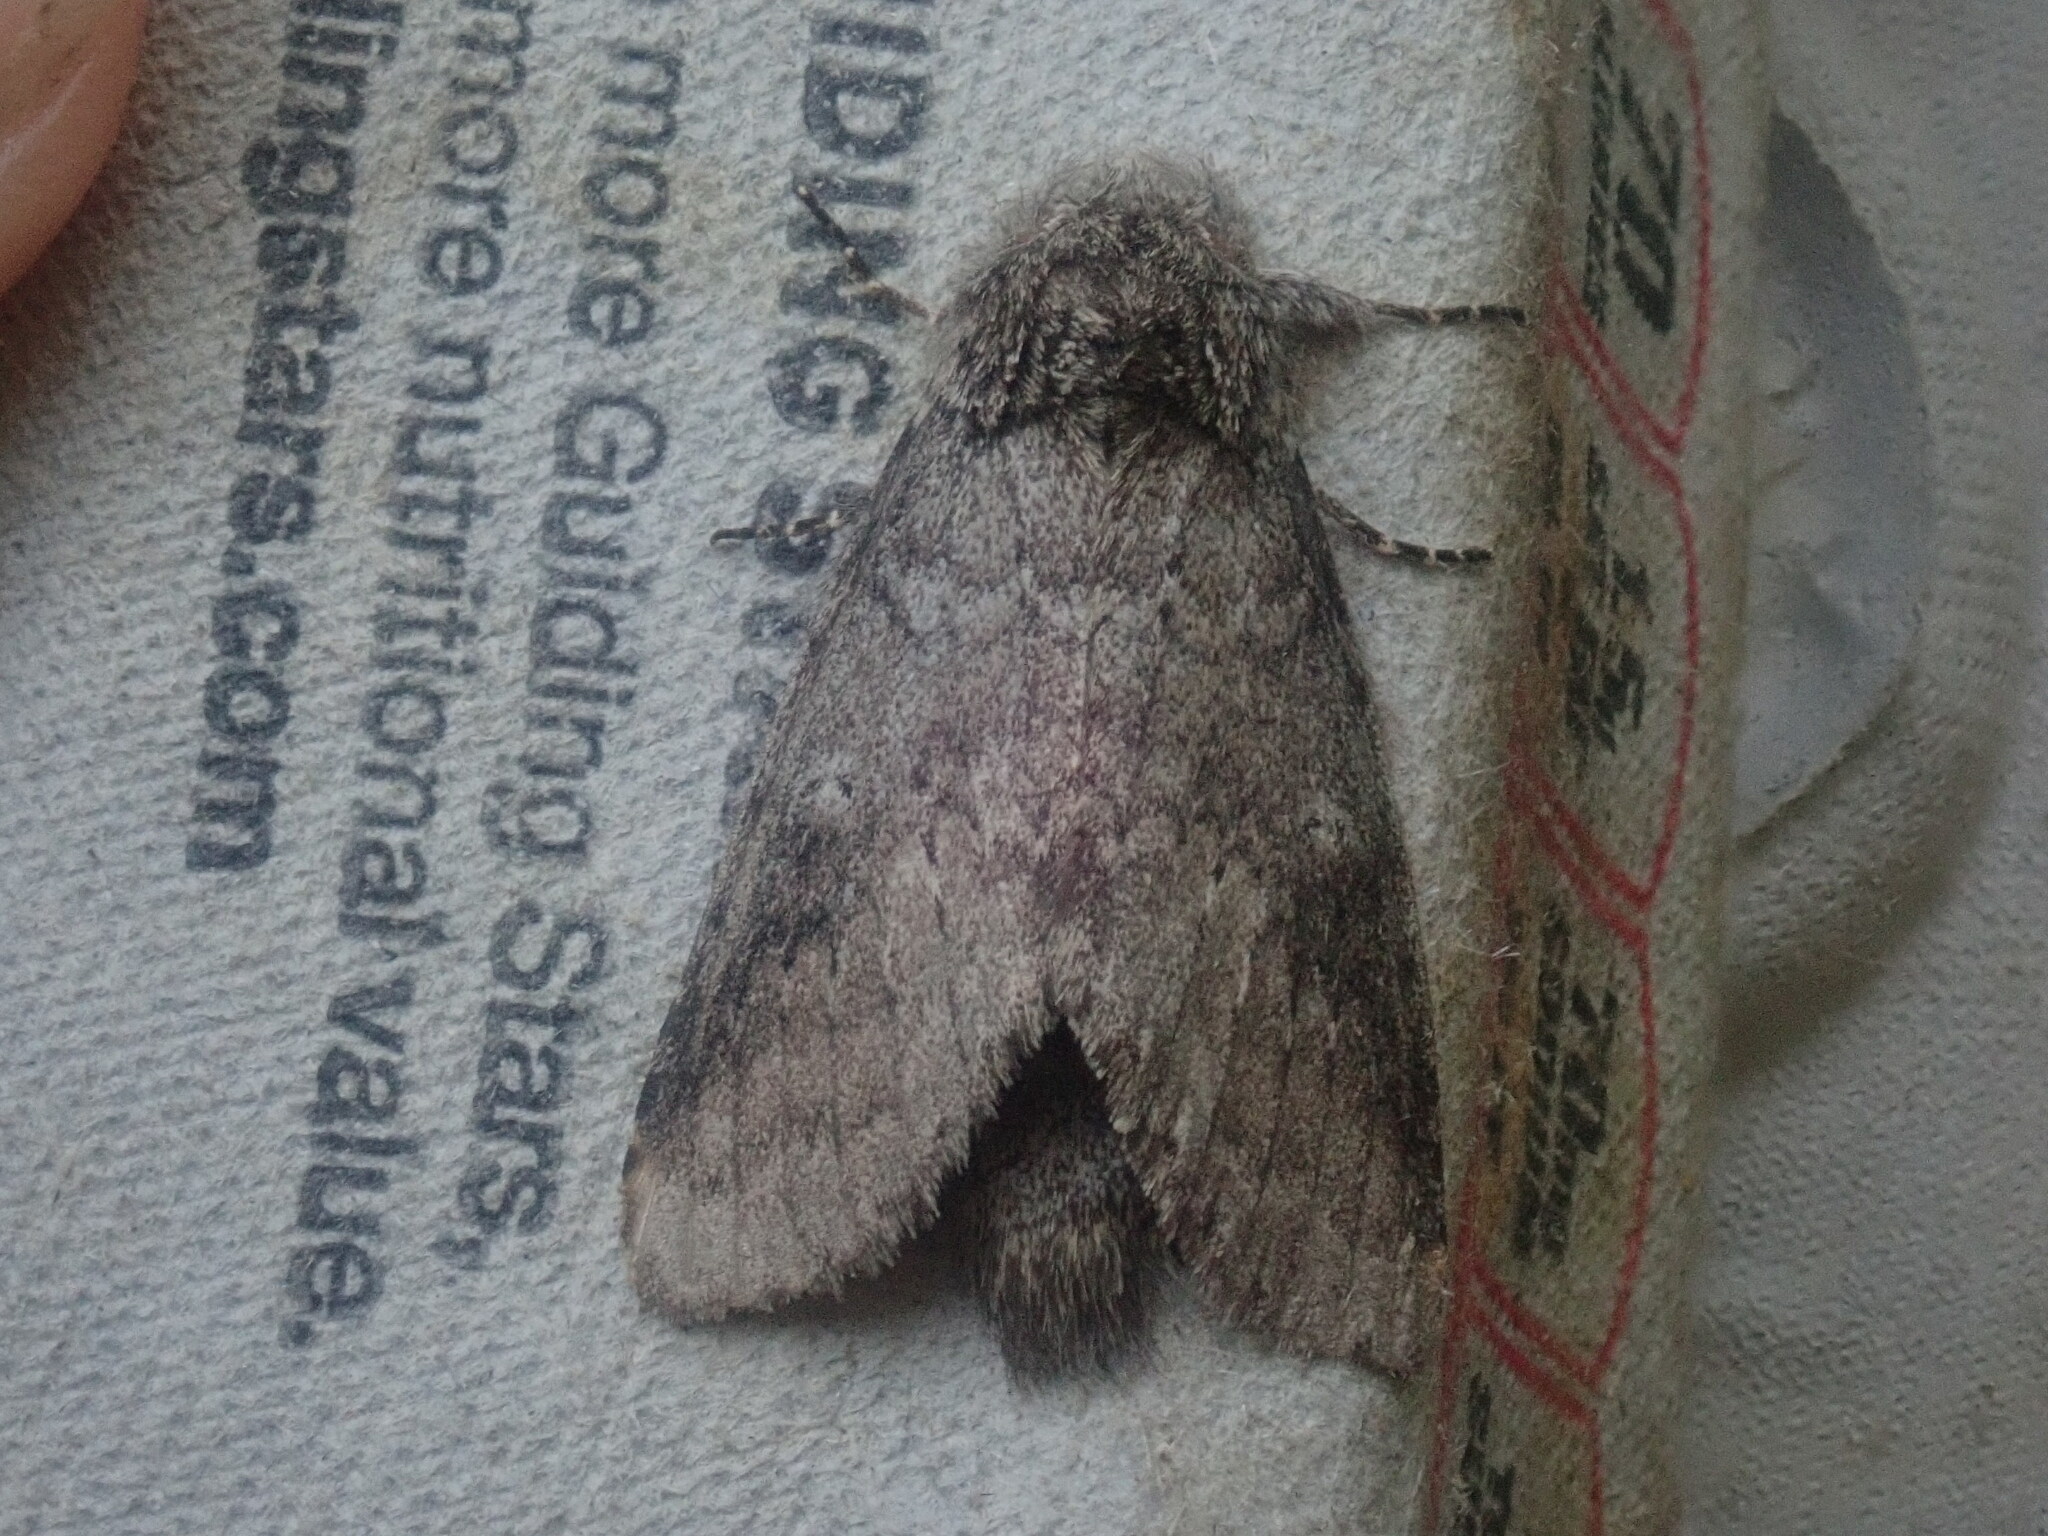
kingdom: Animalia
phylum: Arthropoda
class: Insecta
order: Lepidoptera
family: Notodontidae
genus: Lochmaeus
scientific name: Lochmaeus manteo
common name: Variable oakleaf caterpillar moth
